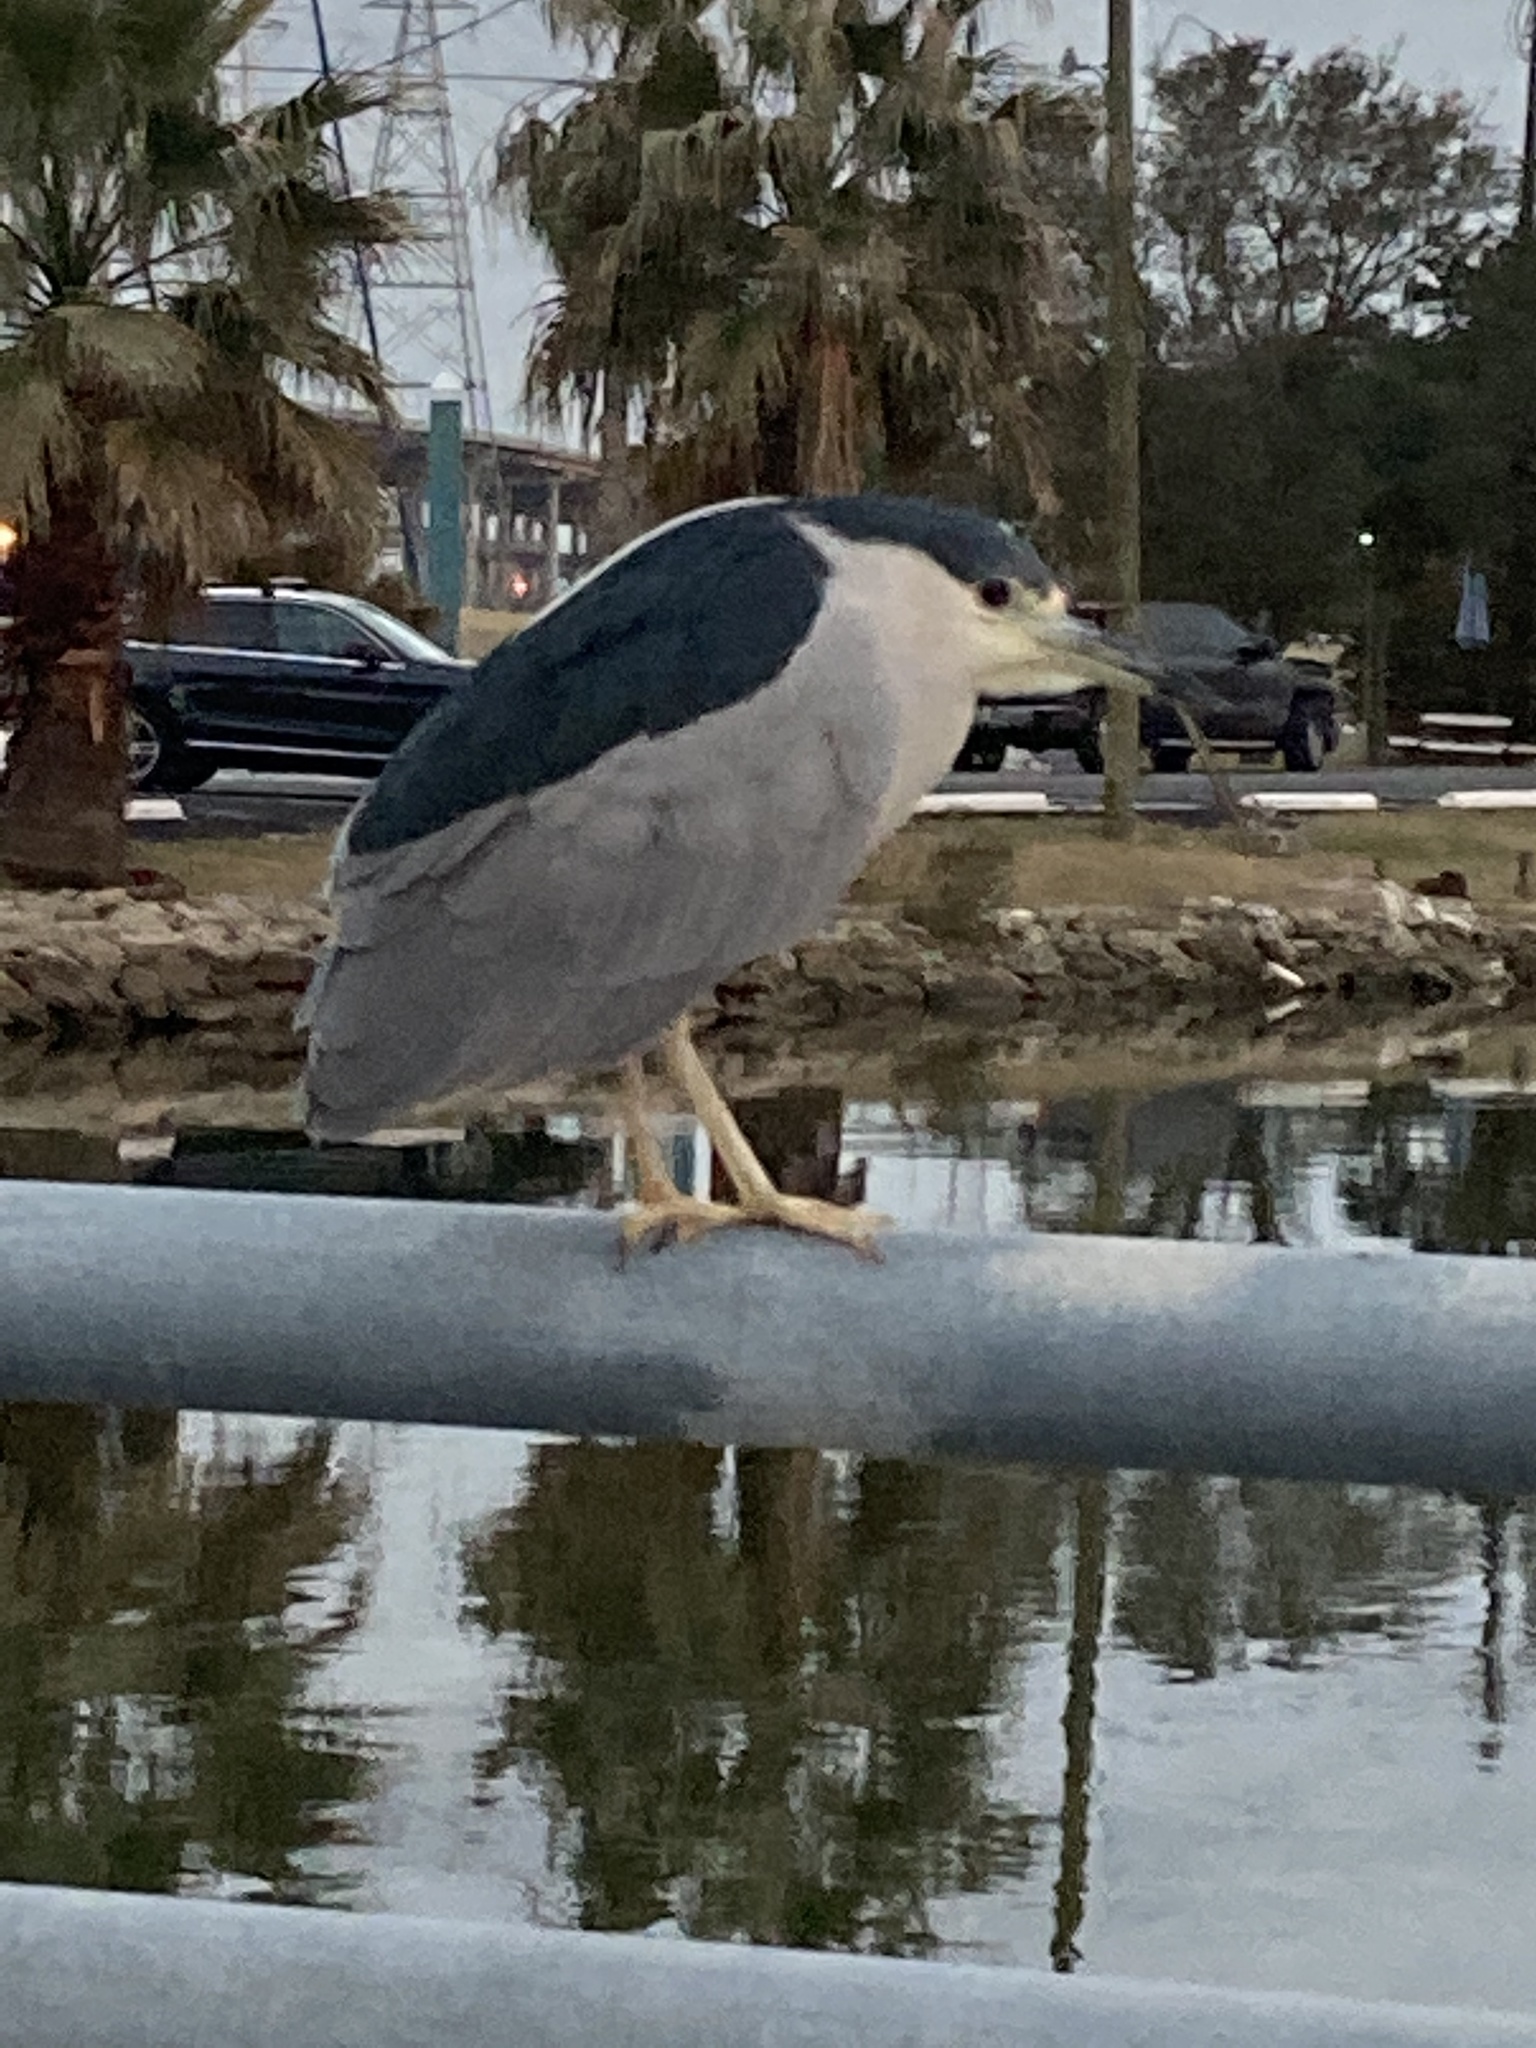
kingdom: Animalia
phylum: Chordata
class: Aves
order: Pelecaniformes
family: Ardeidae
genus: Nycticorax
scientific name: Nycticorax nycticorax
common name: Black-crowned night heron
